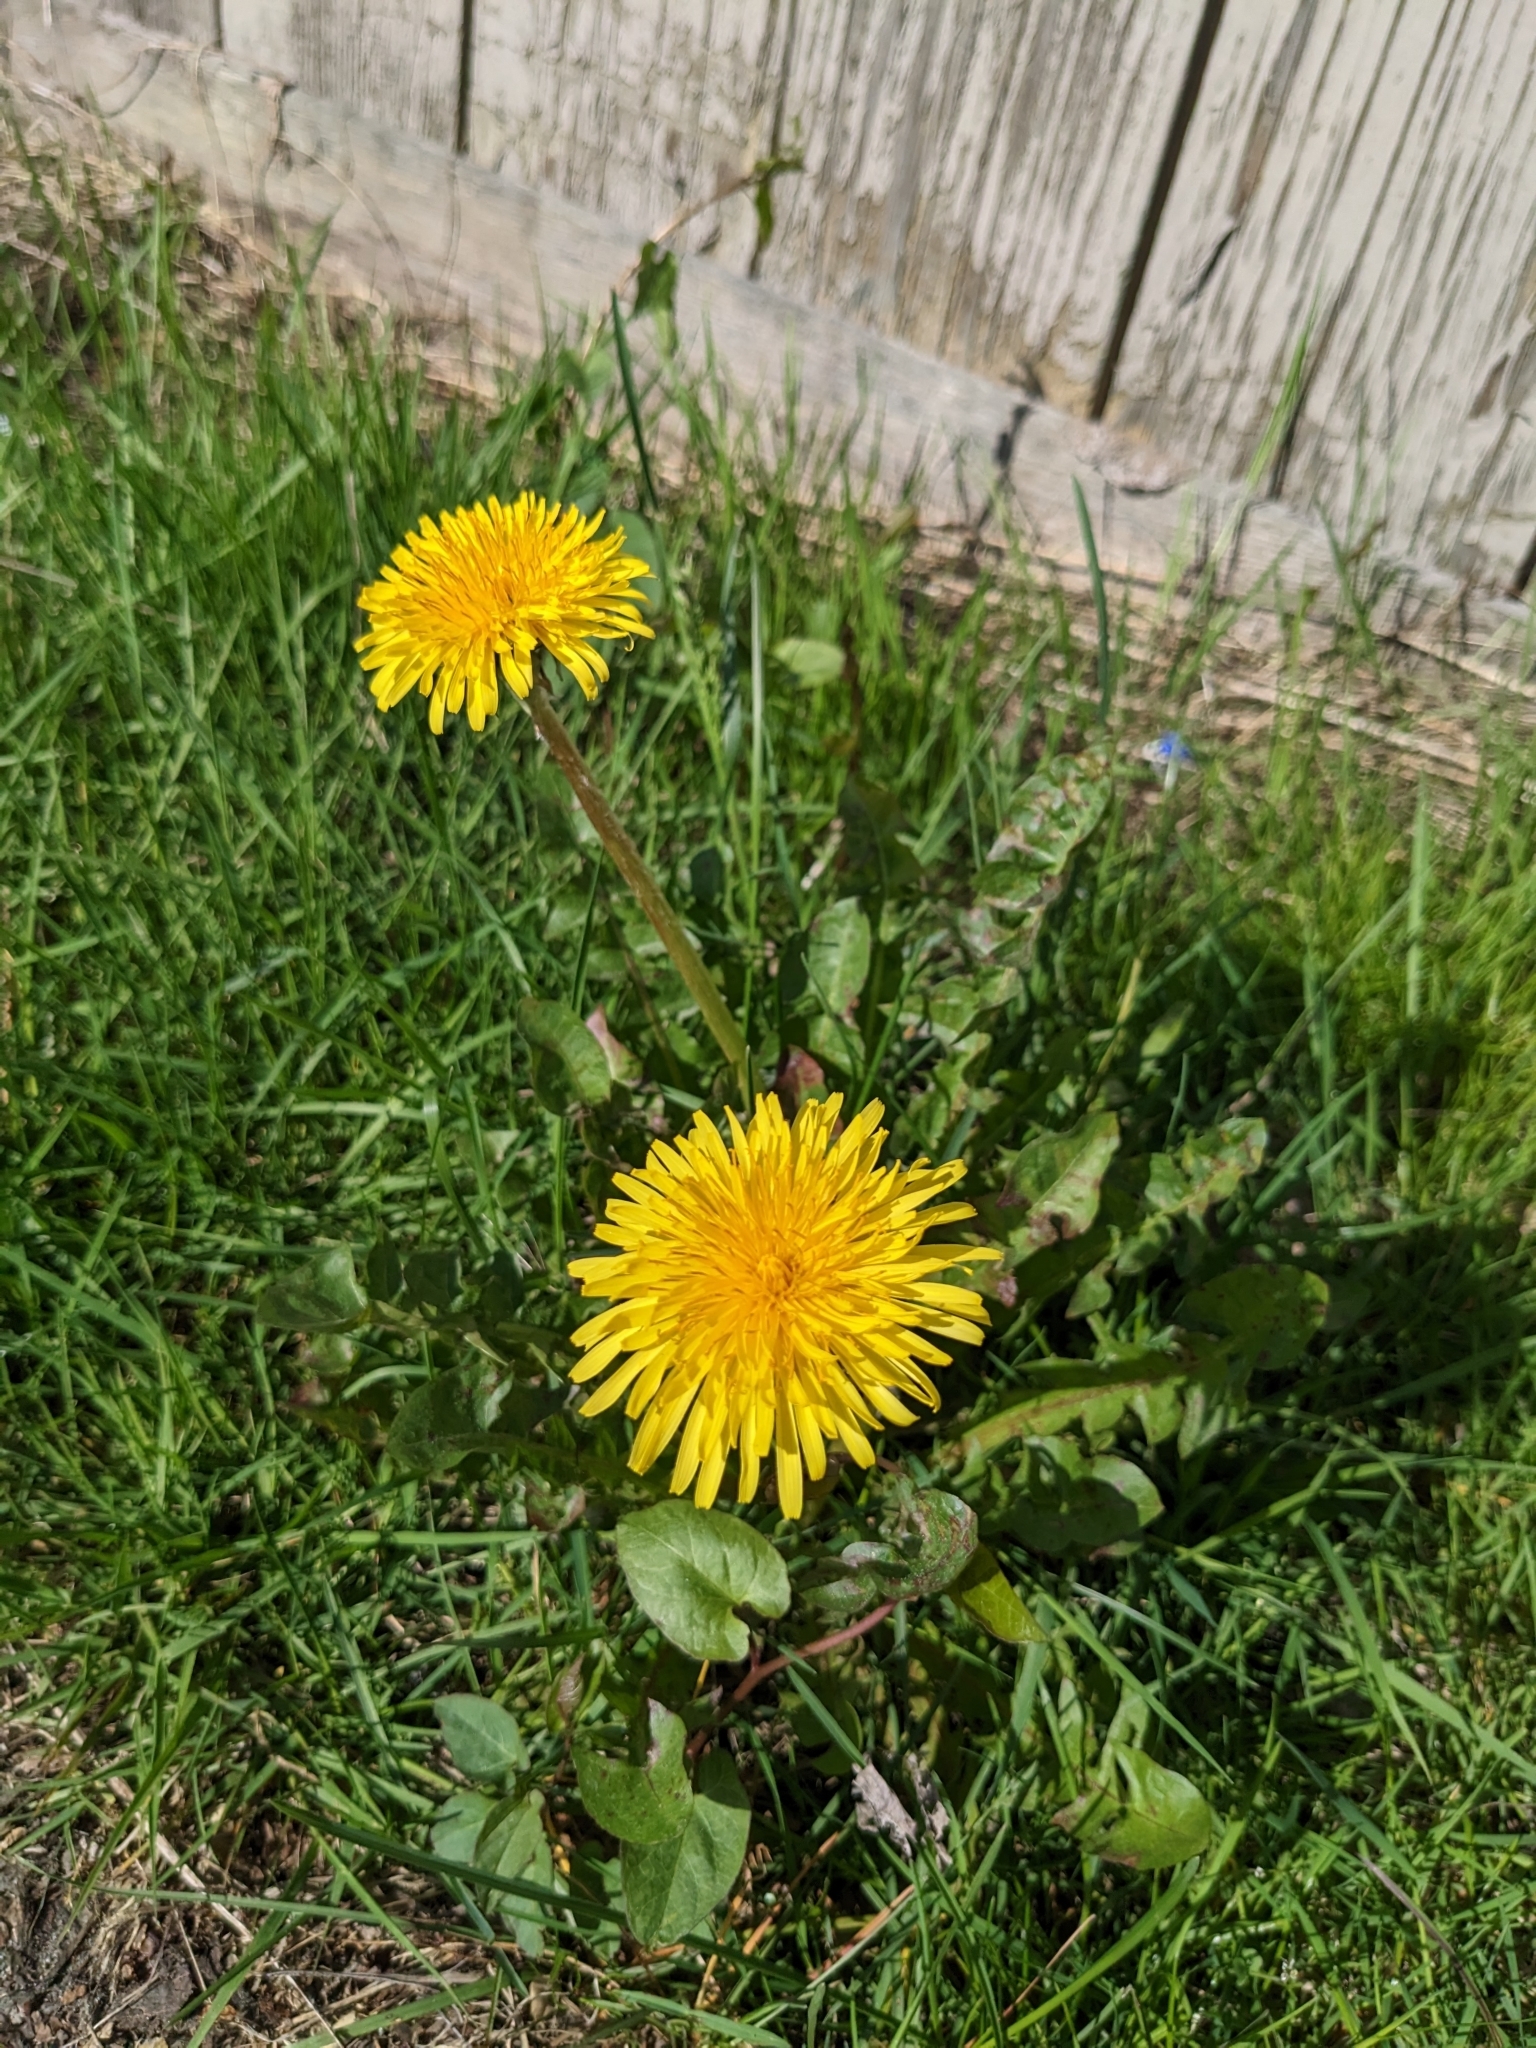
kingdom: Plantae
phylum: Tracheophyta
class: Magnoliopsida
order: Asterales
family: Asteraceae
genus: Taraxacum
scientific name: Taraxacum officinale
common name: Common dandelion
